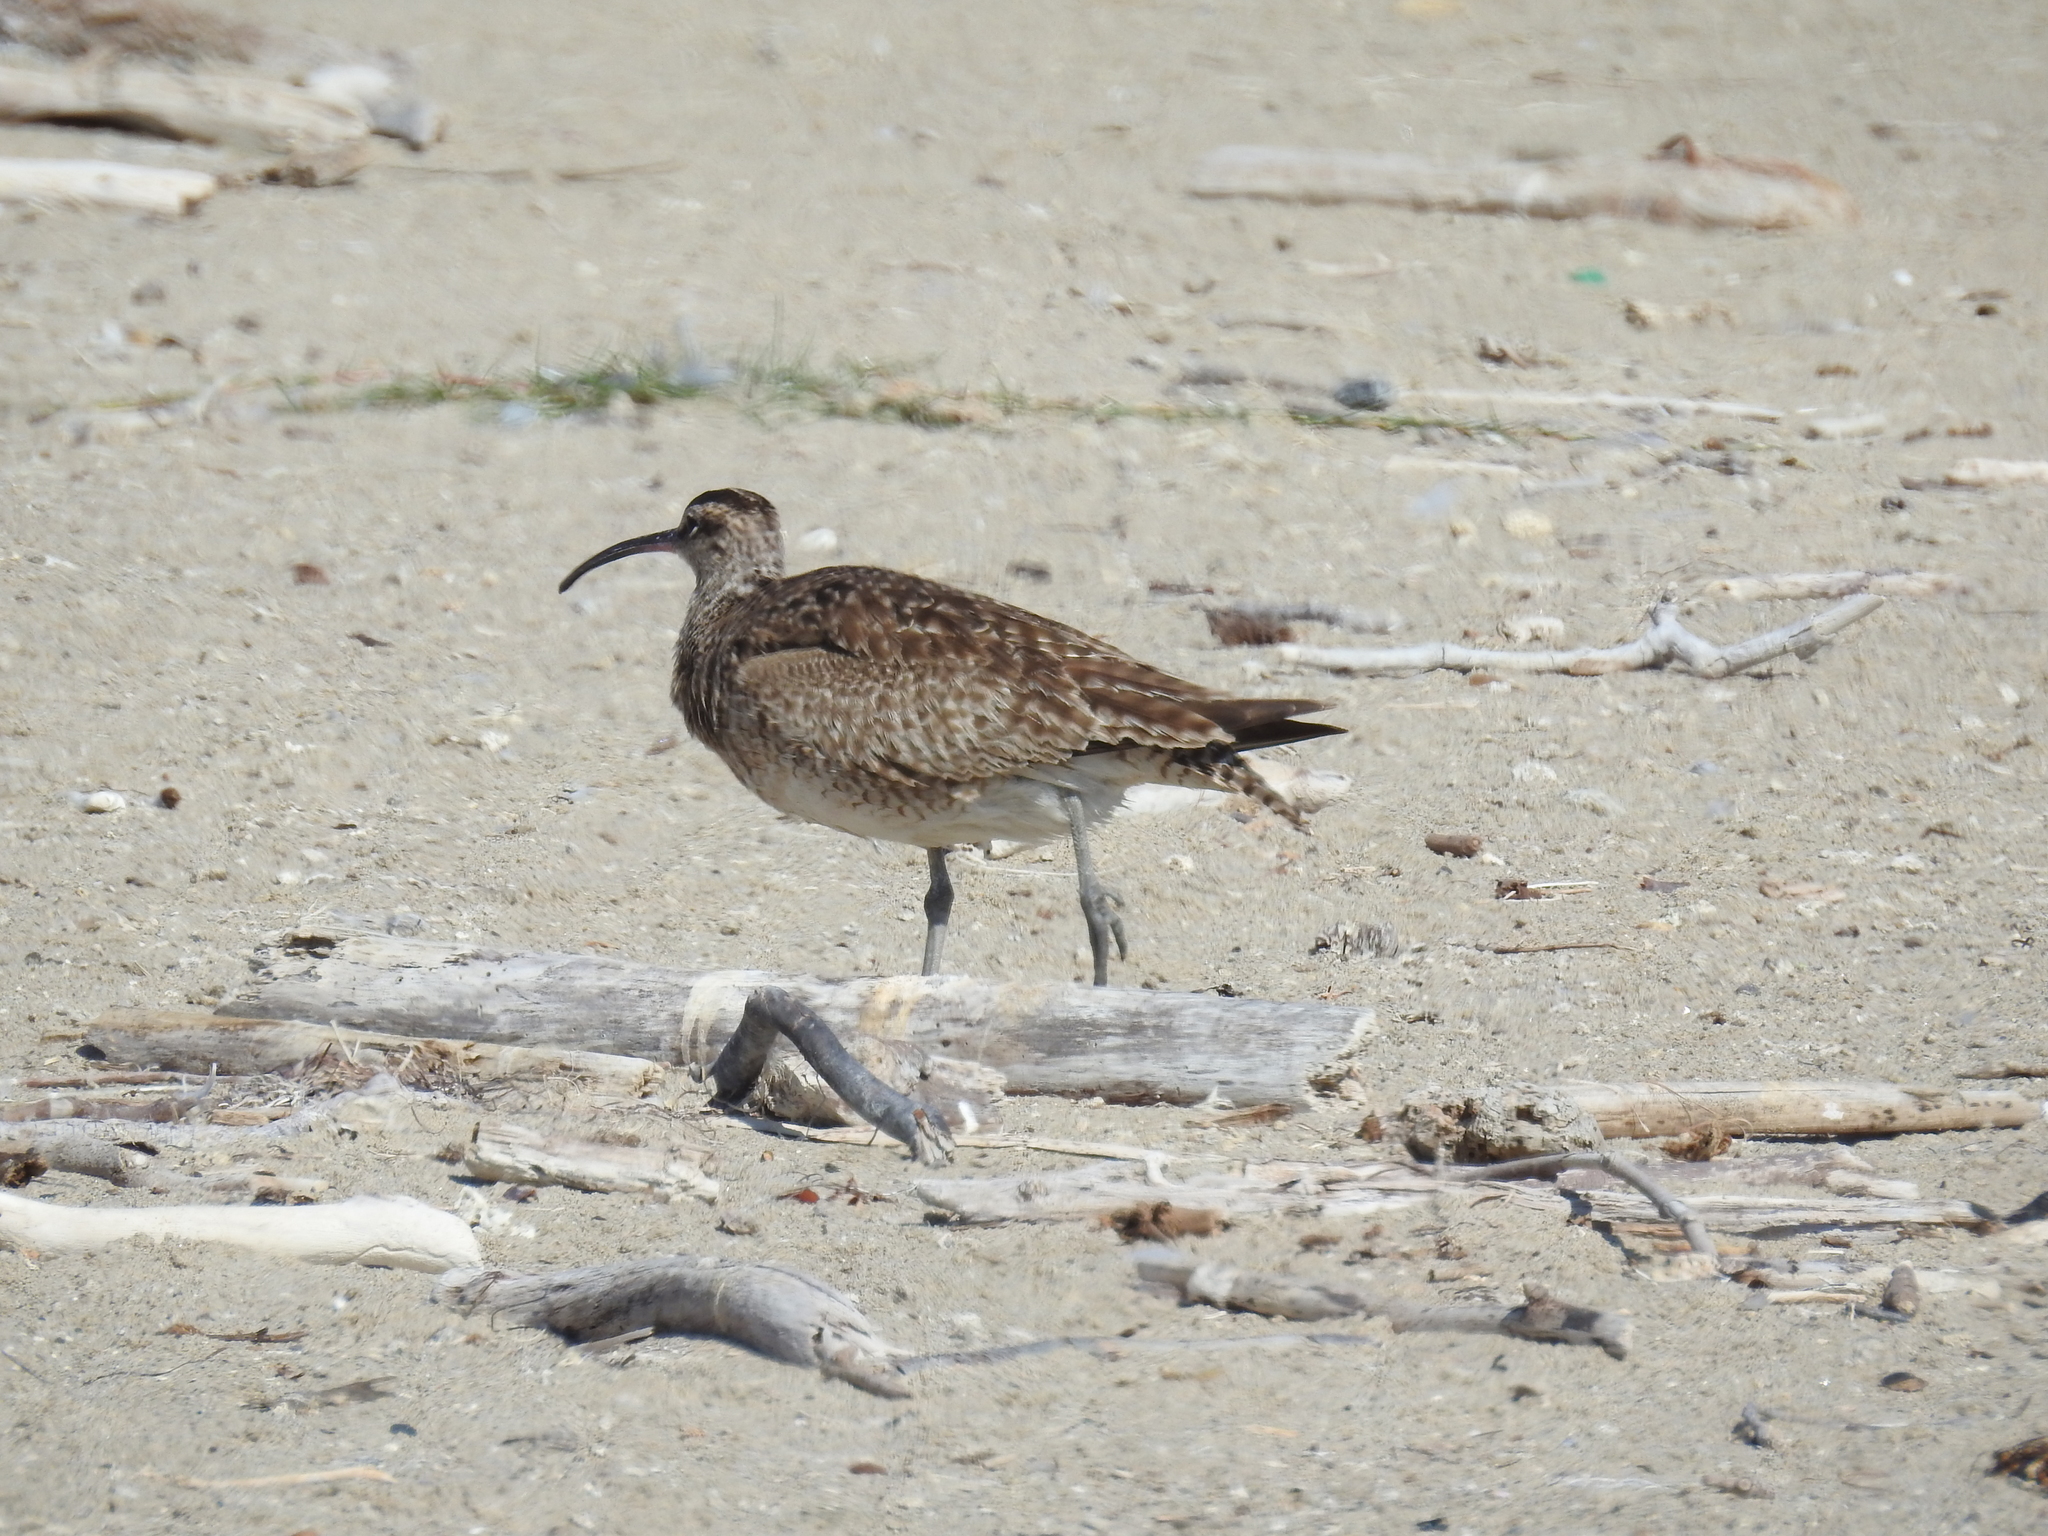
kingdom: Animalia
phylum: Chordata
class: Aves
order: Charadriiformes
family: Scolopacidae
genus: Numenius
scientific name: Numenius phaeopus
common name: Whimbrel
